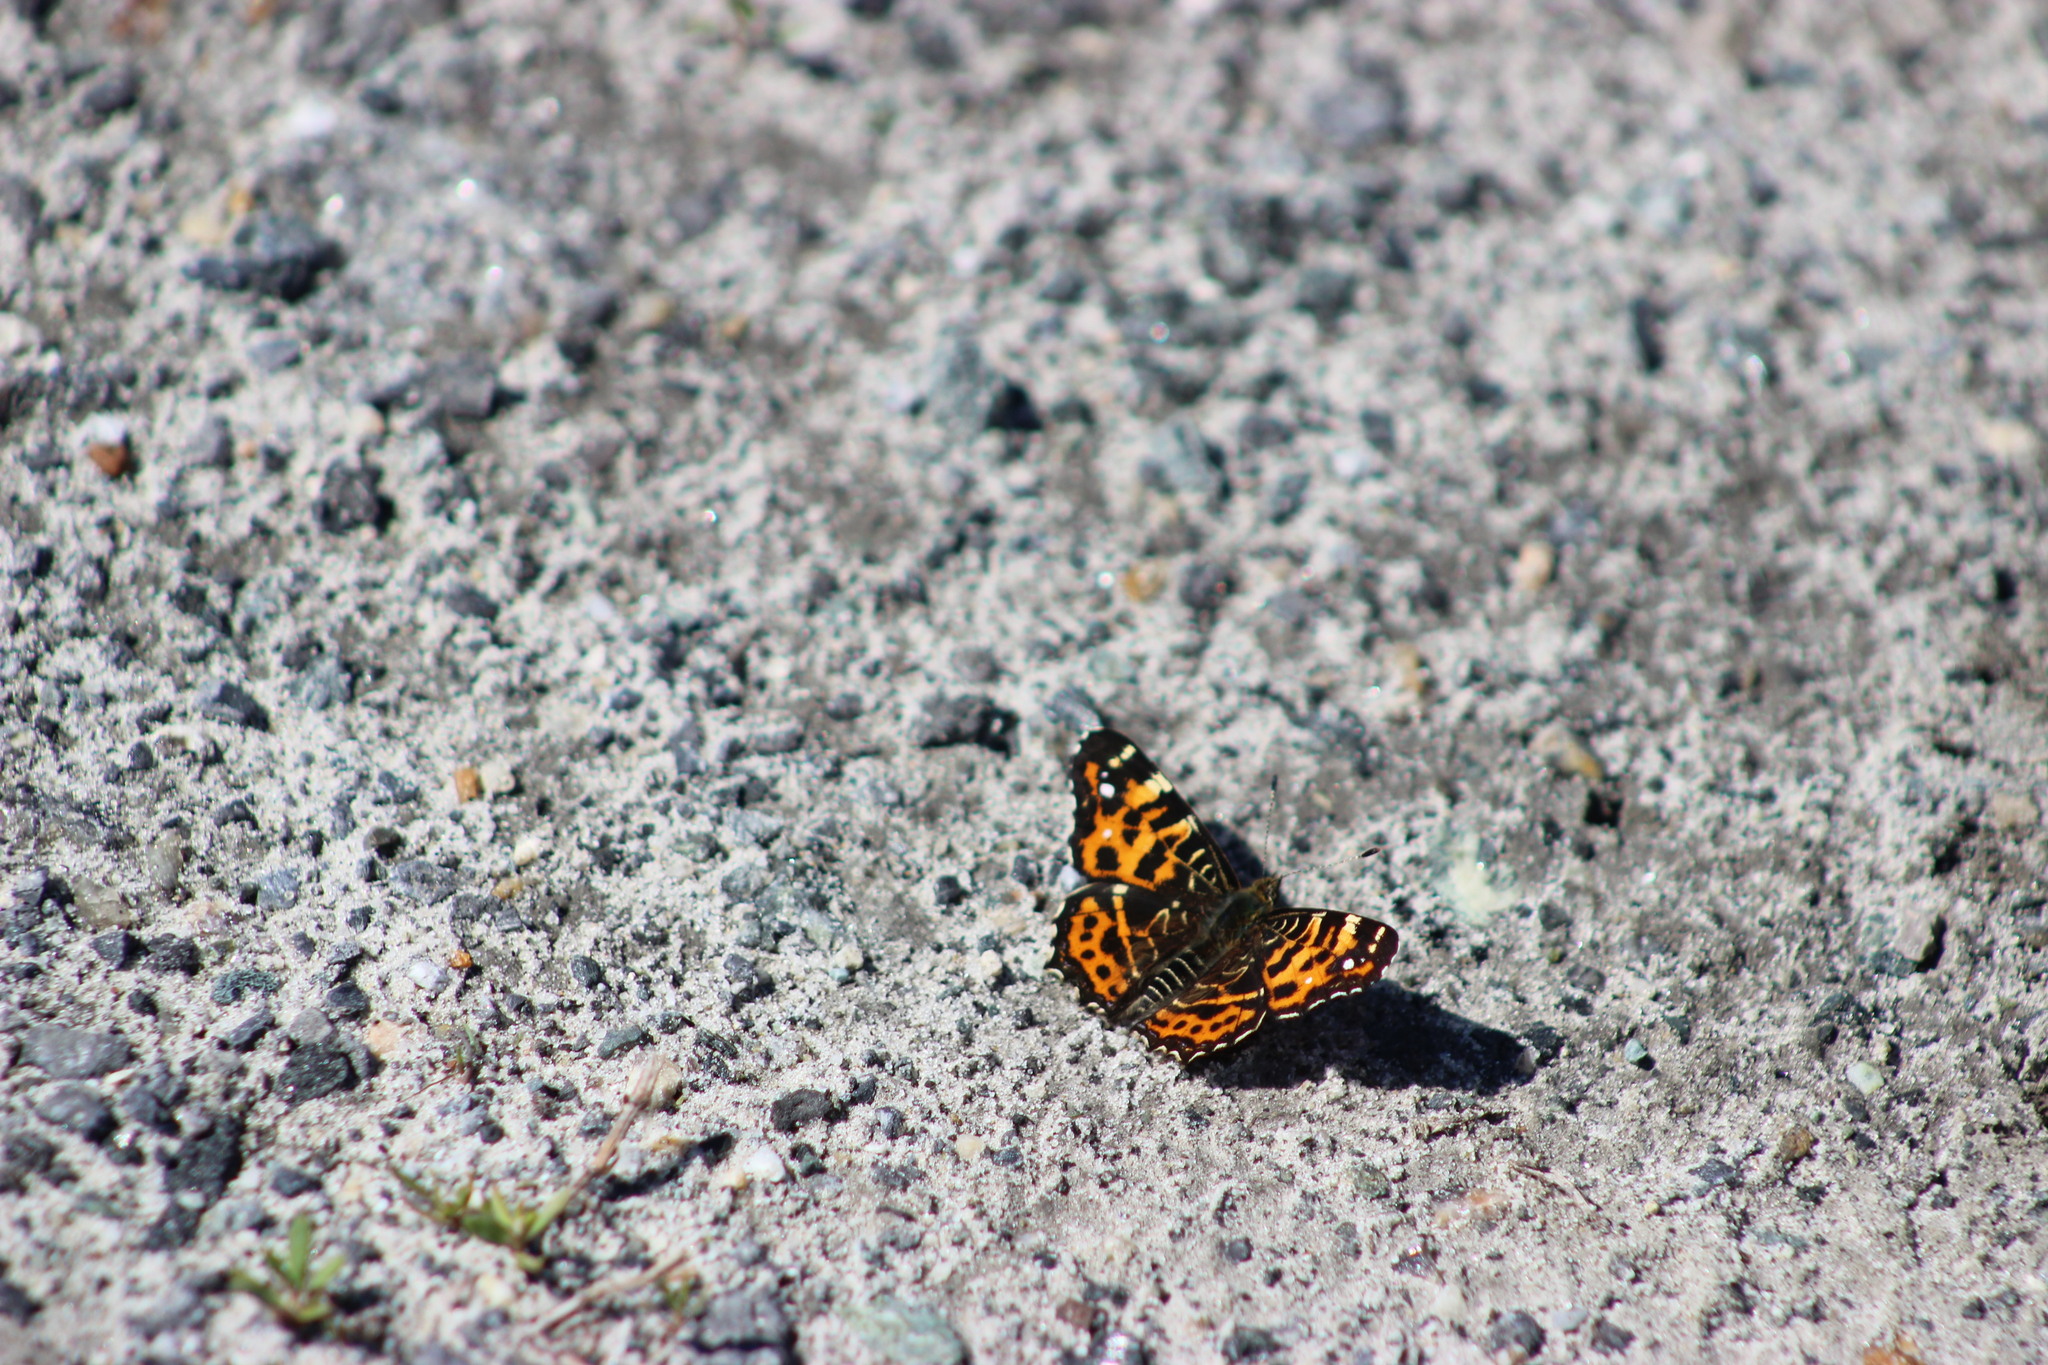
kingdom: Animalia
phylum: Arthropoda
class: Insecta
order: Lepidoptera
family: Nymphalidae
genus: Araschnia
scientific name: Araschnia levana
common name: Map butterfly
